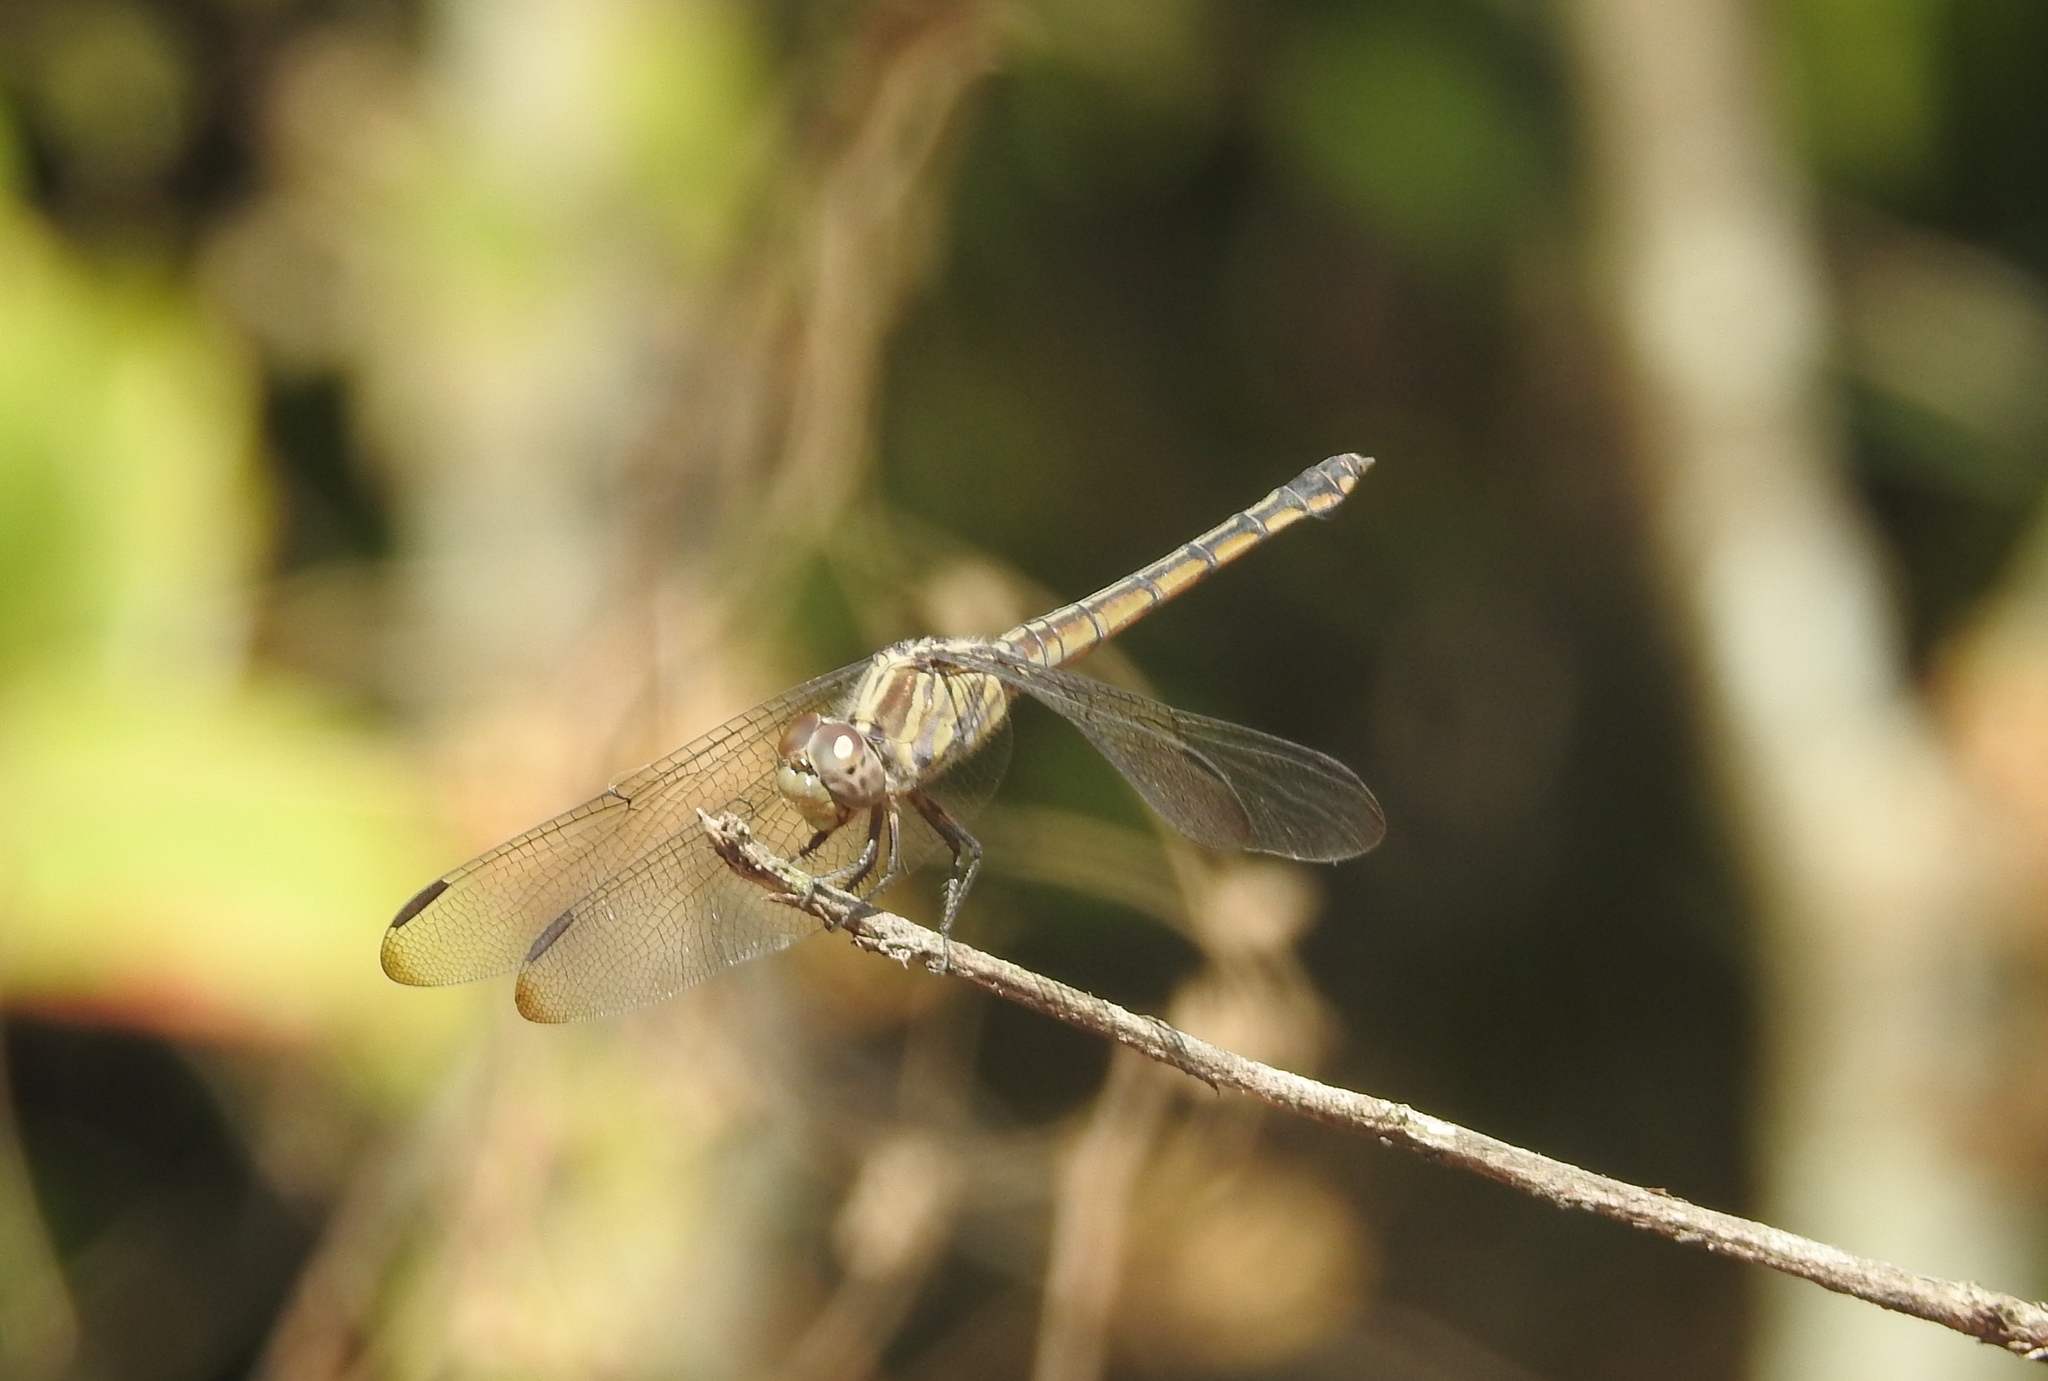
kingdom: Animalia
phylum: Arthropoda
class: Insecta
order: Odonata
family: Libellulidae
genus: Potamarcha
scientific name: Potamarcha congener
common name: Blue chaser
